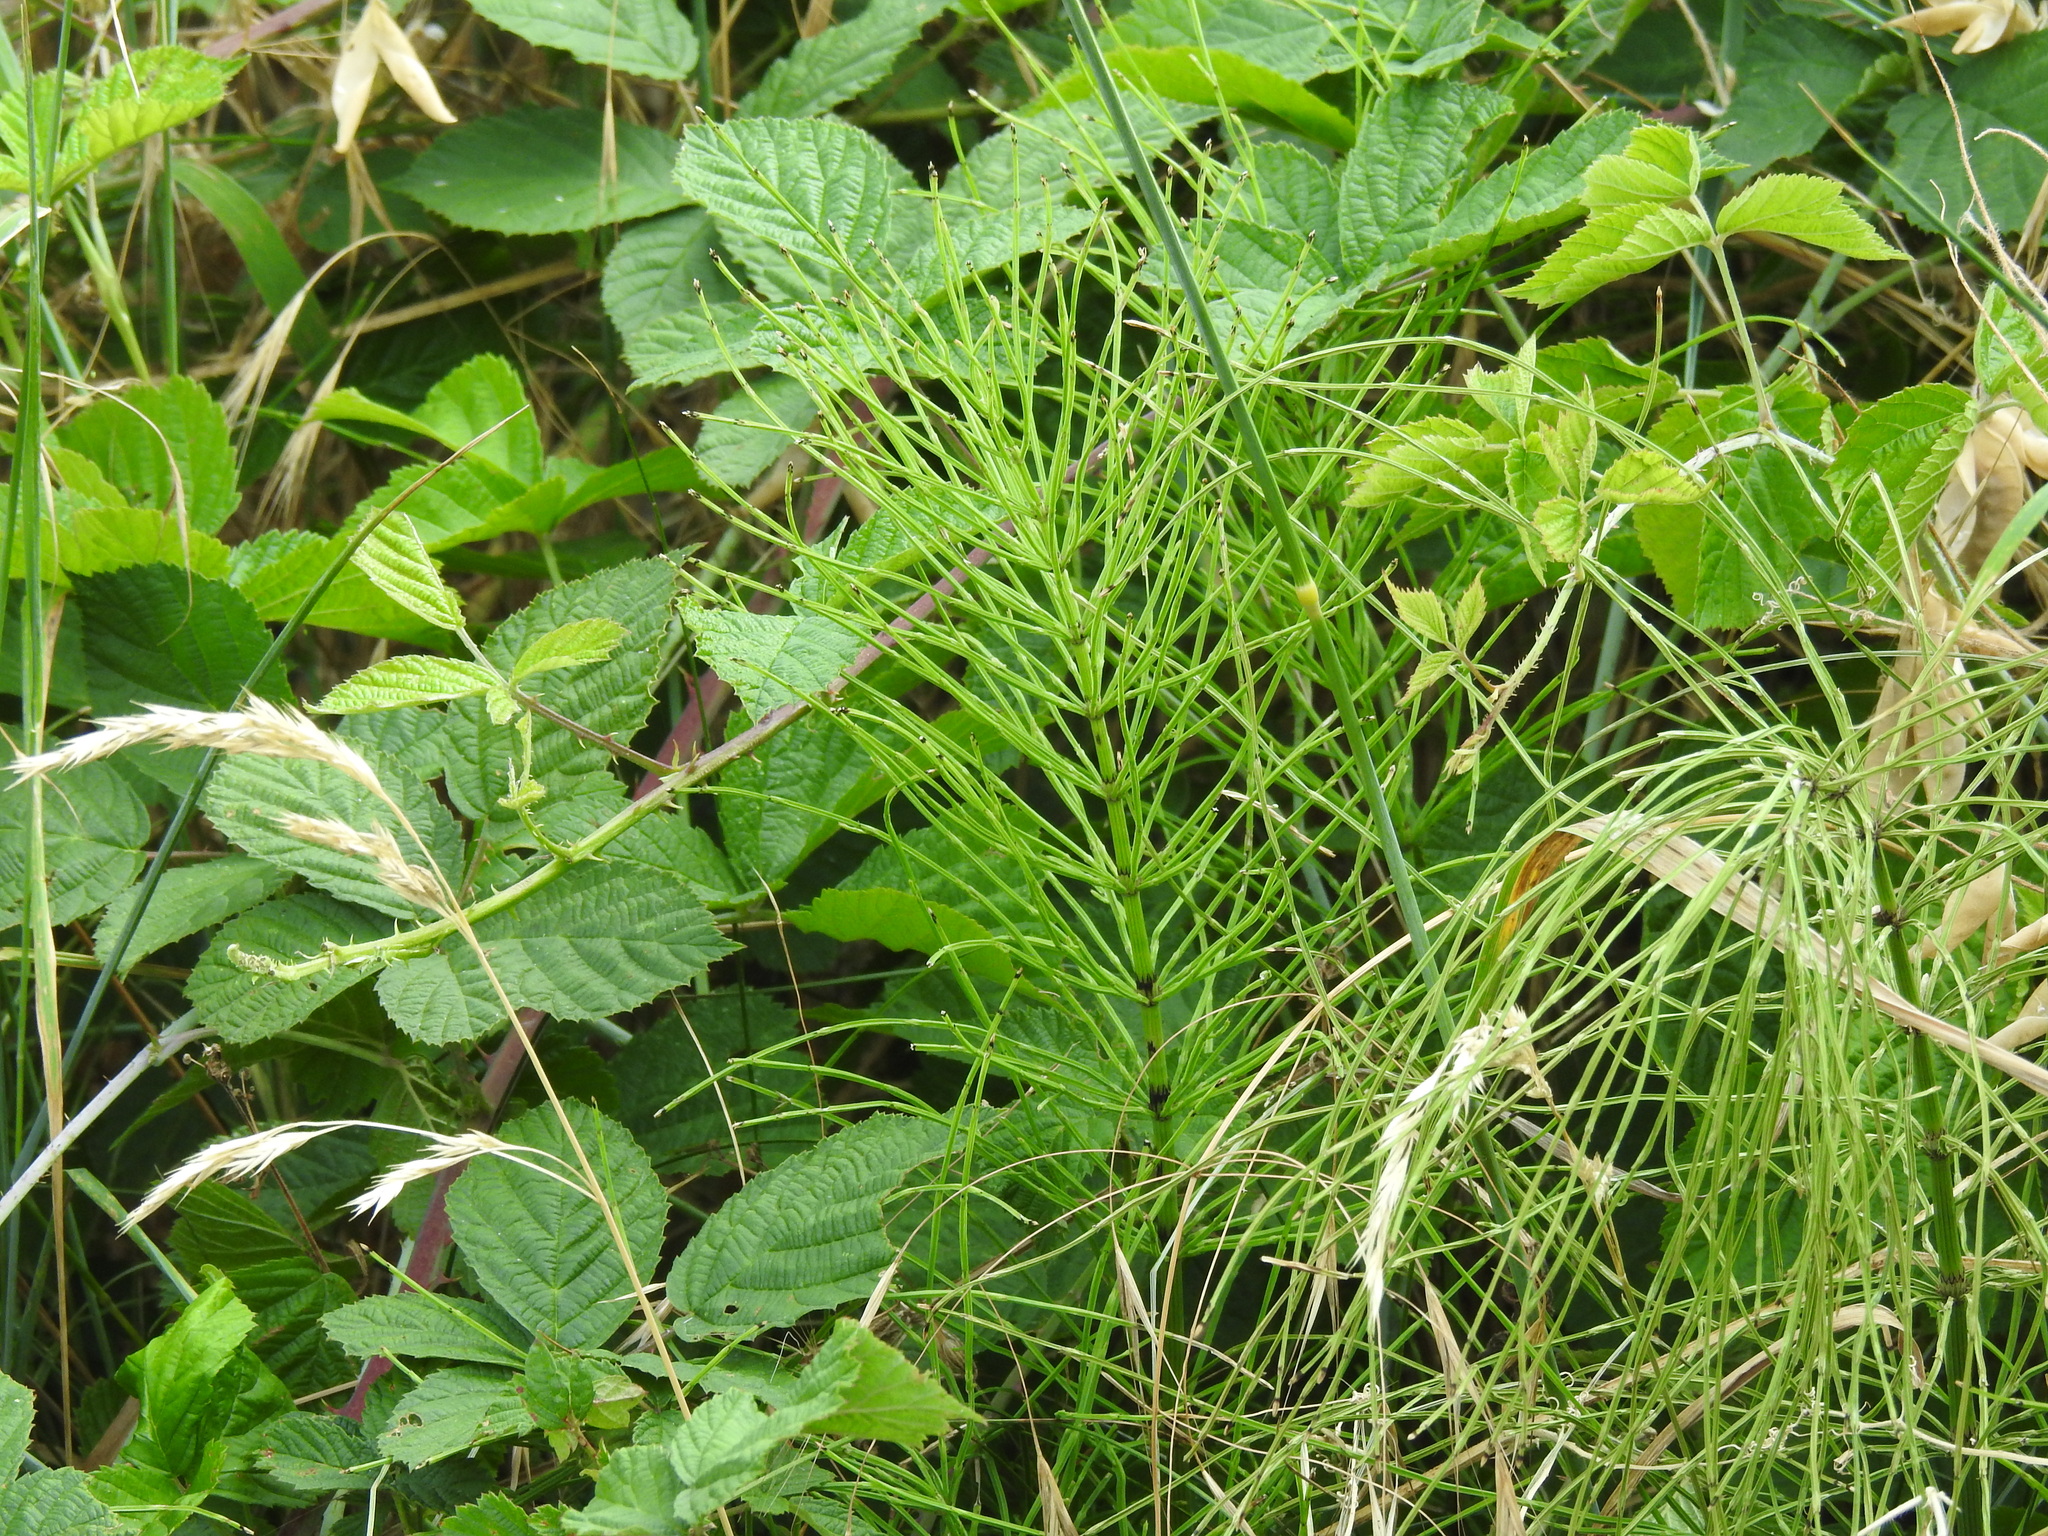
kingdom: Plantae
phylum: Tracheophyta
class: Polypodiopsida
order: Equisetales
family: Equisetaceae
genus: Equisetum
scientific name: Equisetum arvense
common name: Field horsetail
